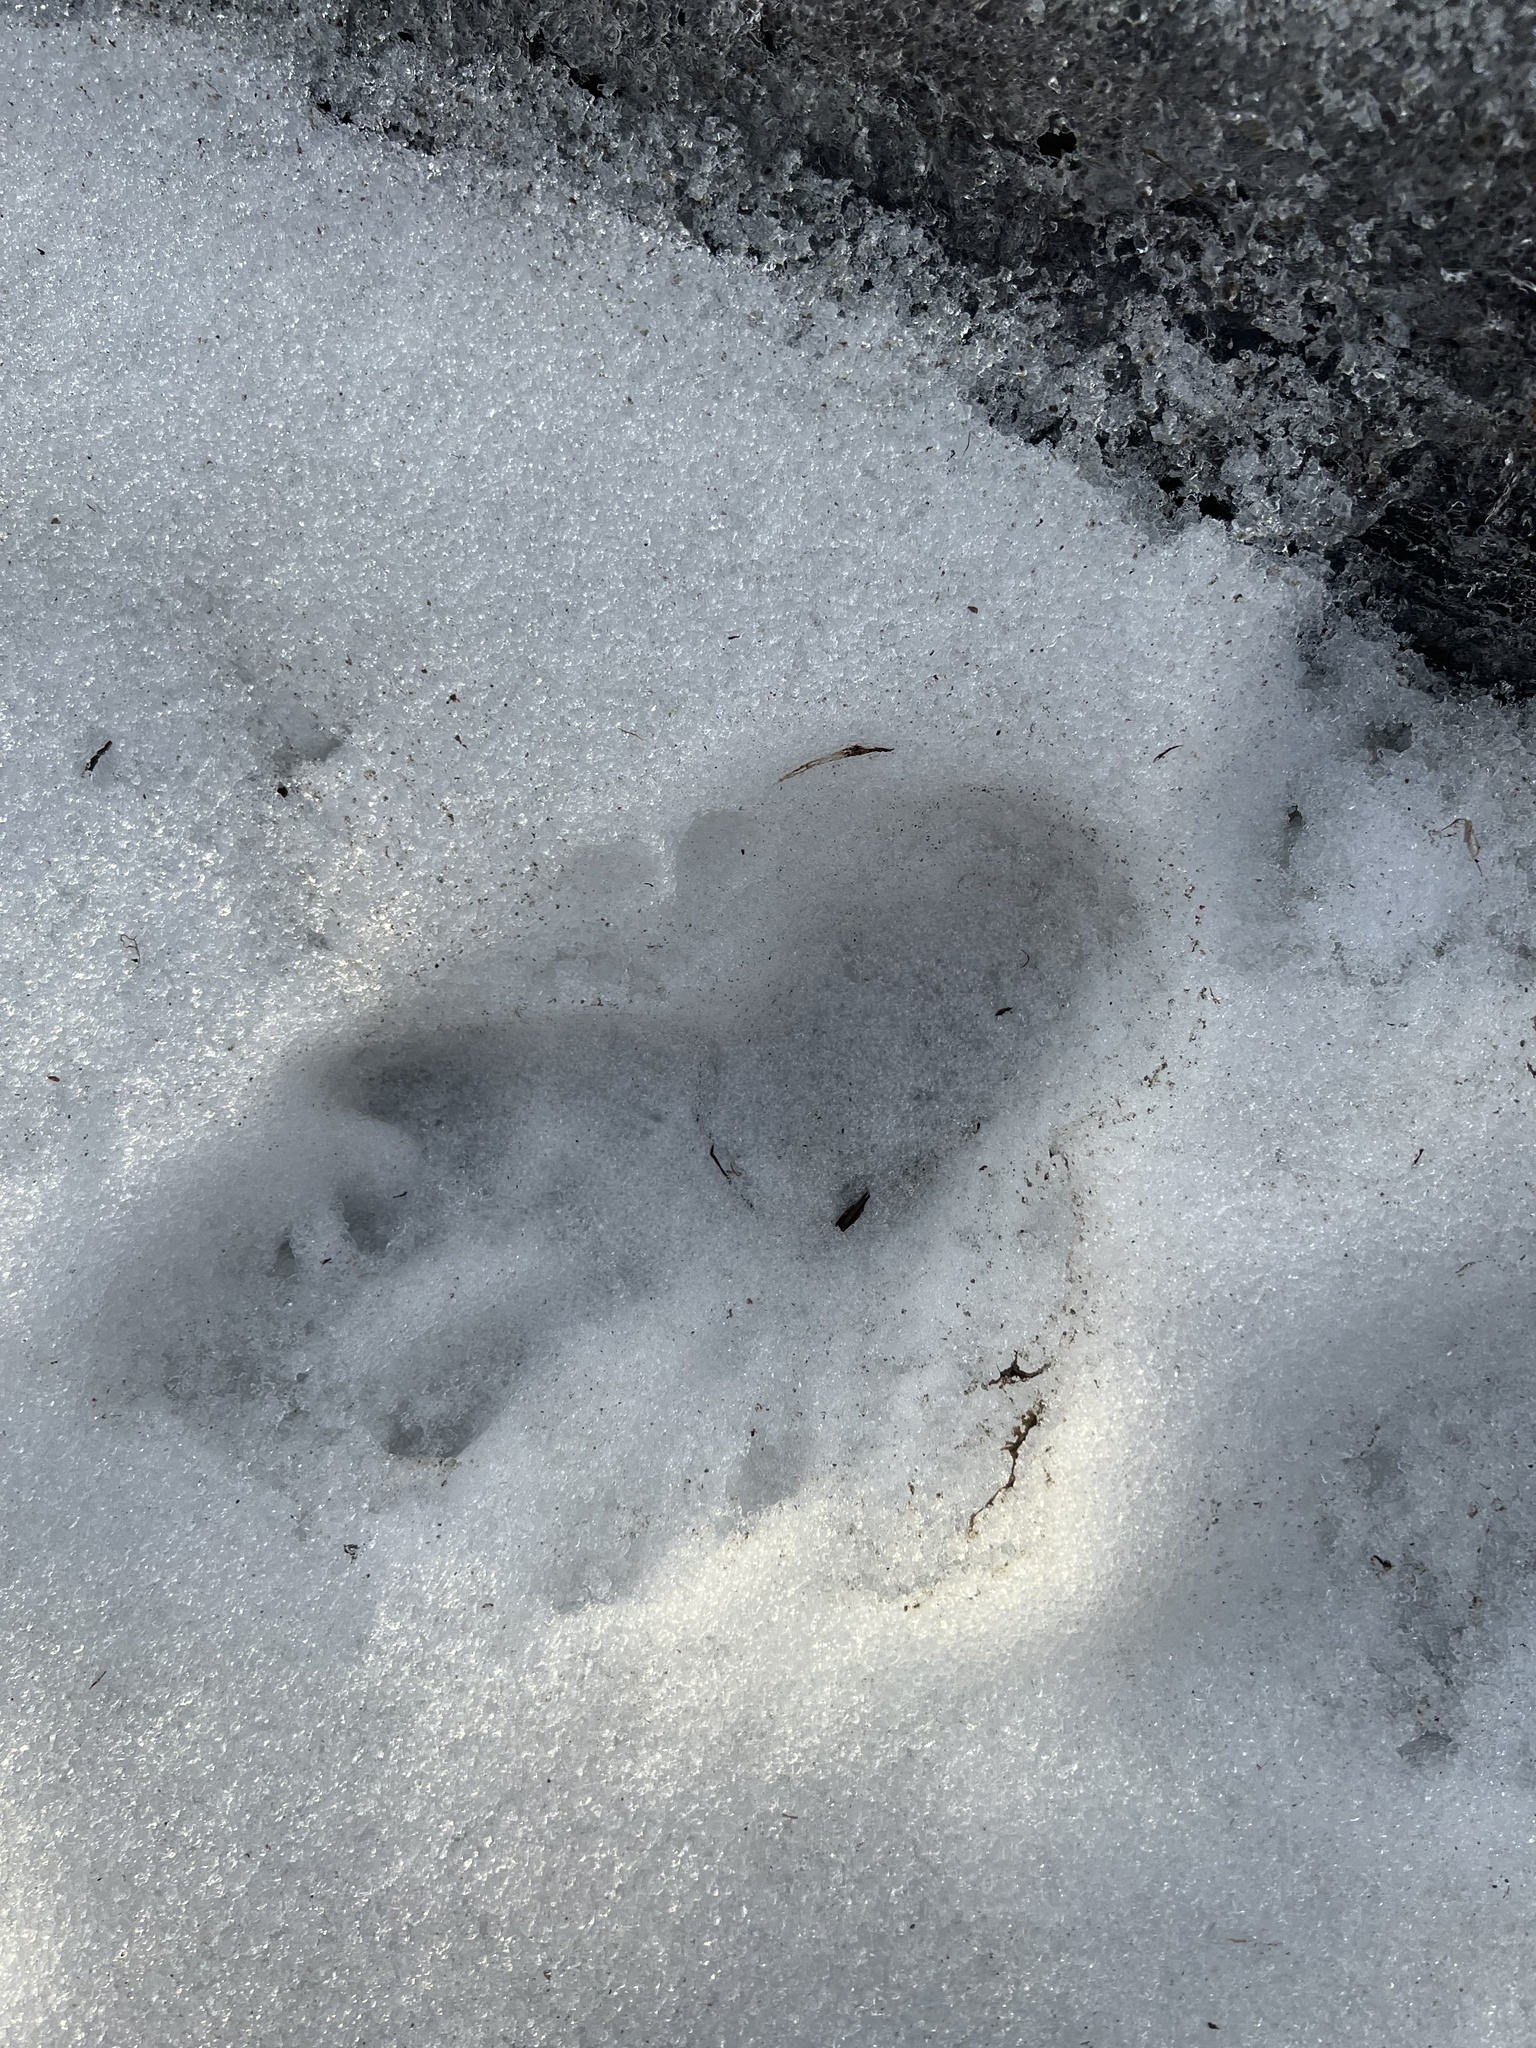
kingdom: Animalia
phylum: Chordata
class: Mammalia
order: Rodentia
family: Castoridae
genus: Castor
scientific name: Castor canadensis
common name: American beaver
